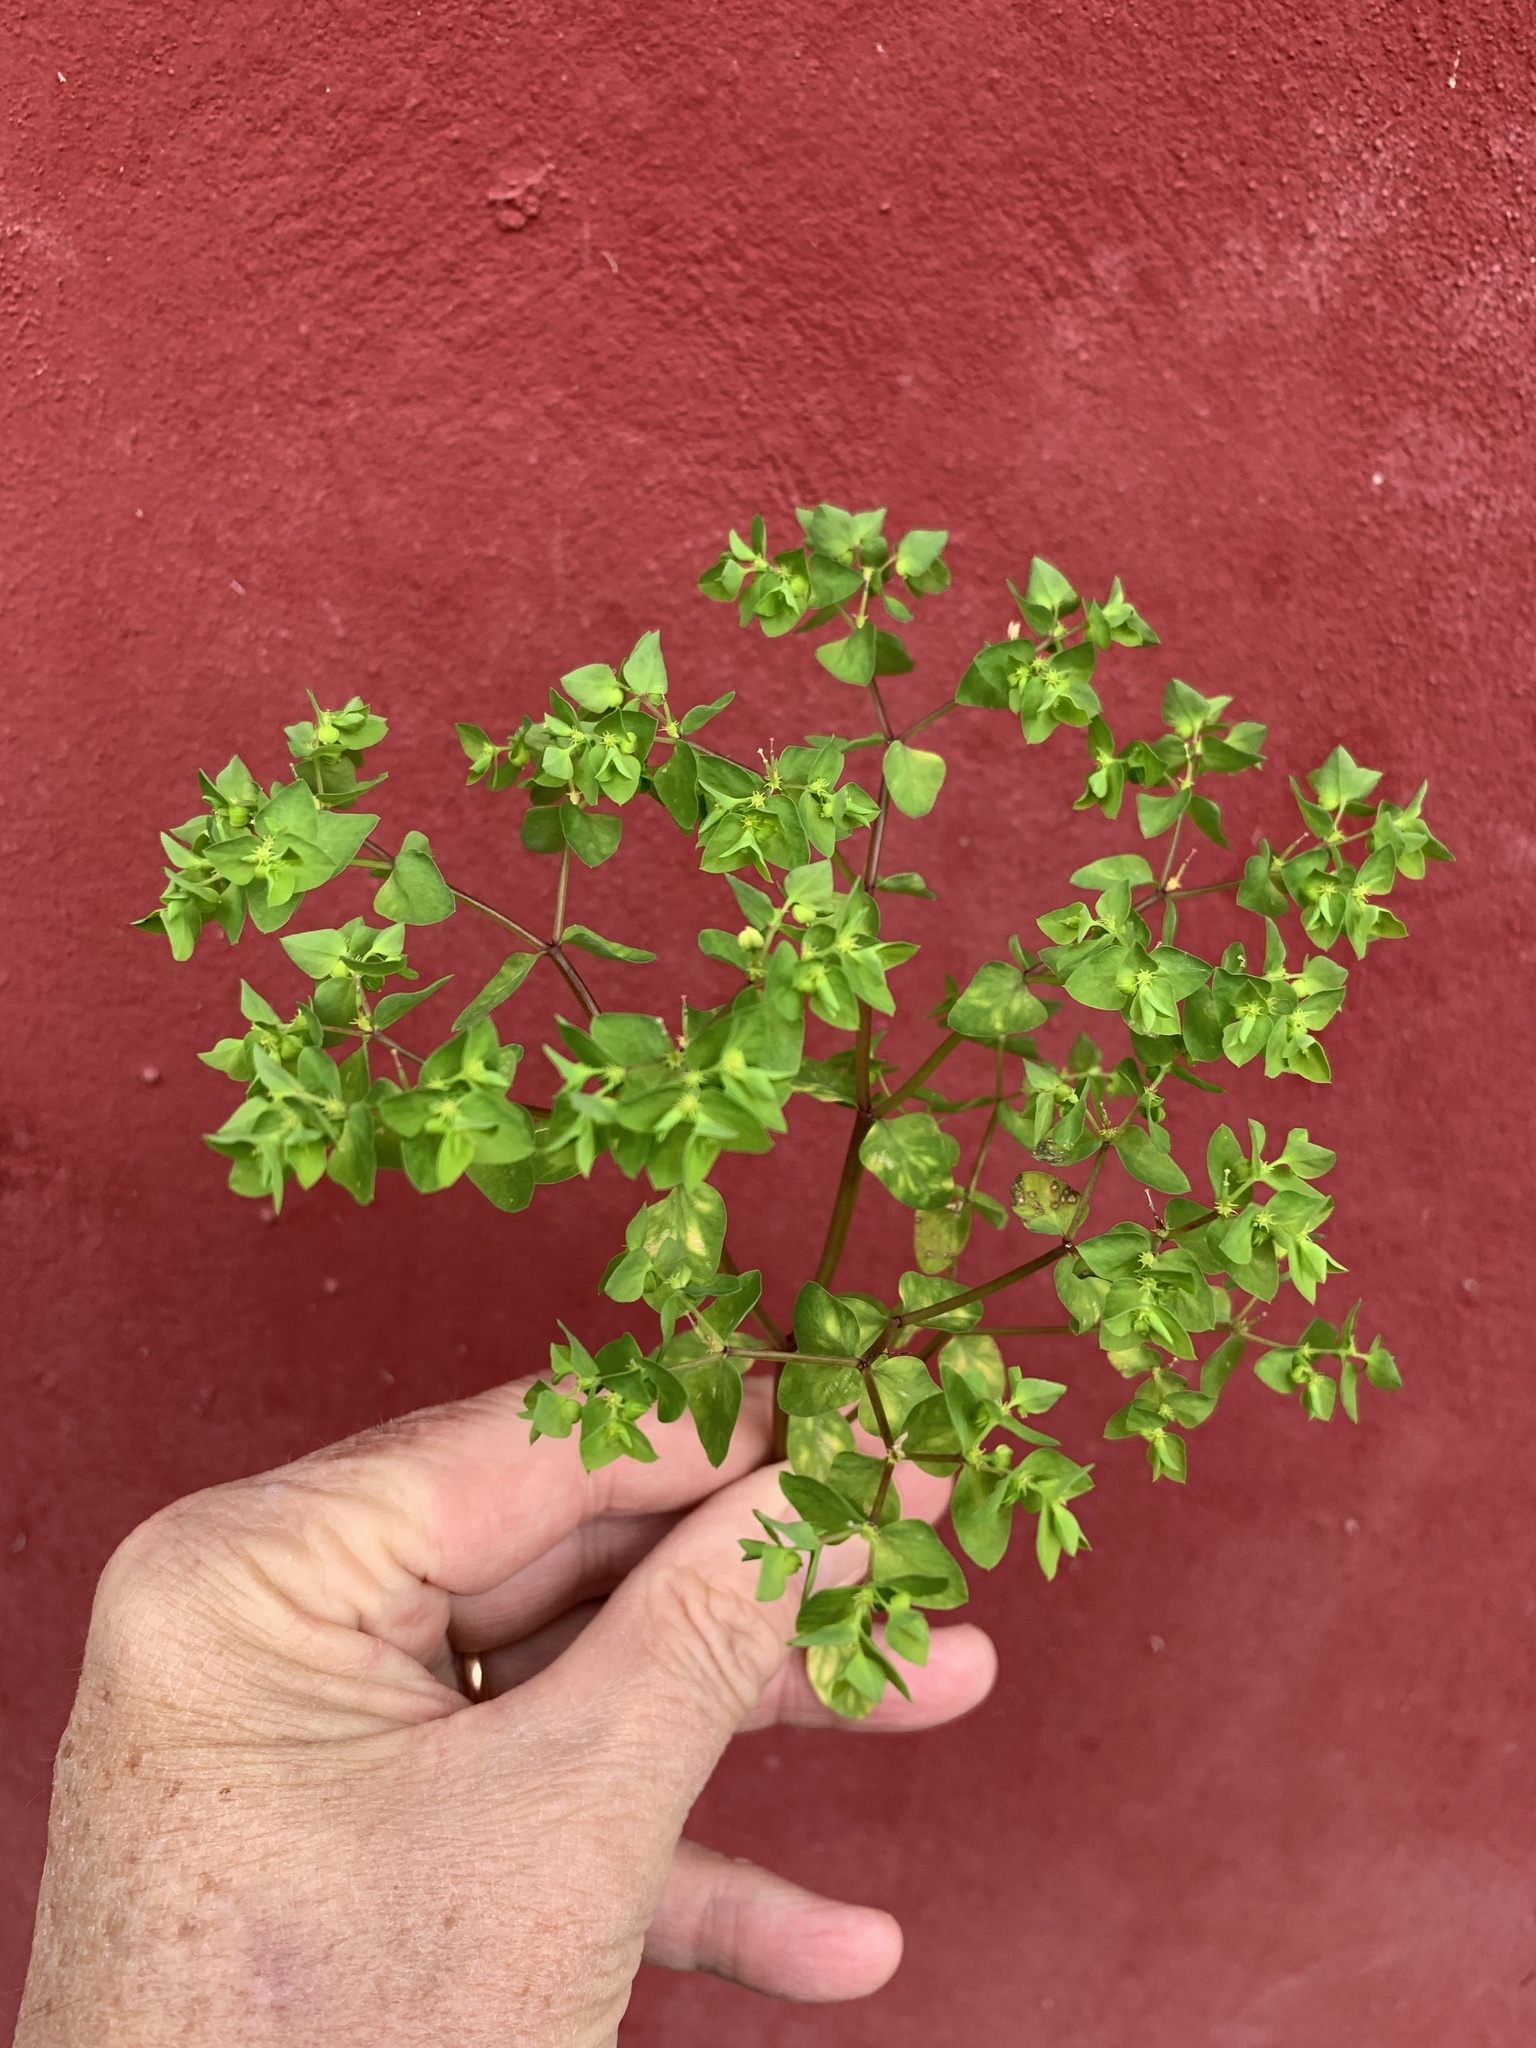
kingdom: Plantae
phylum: Tracheophyta
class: Magnoliopsida
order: Malpighiales
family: Euphorbiaceae
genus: Euphorbia
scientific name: Euphorbia peplus
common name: Petty spurge
